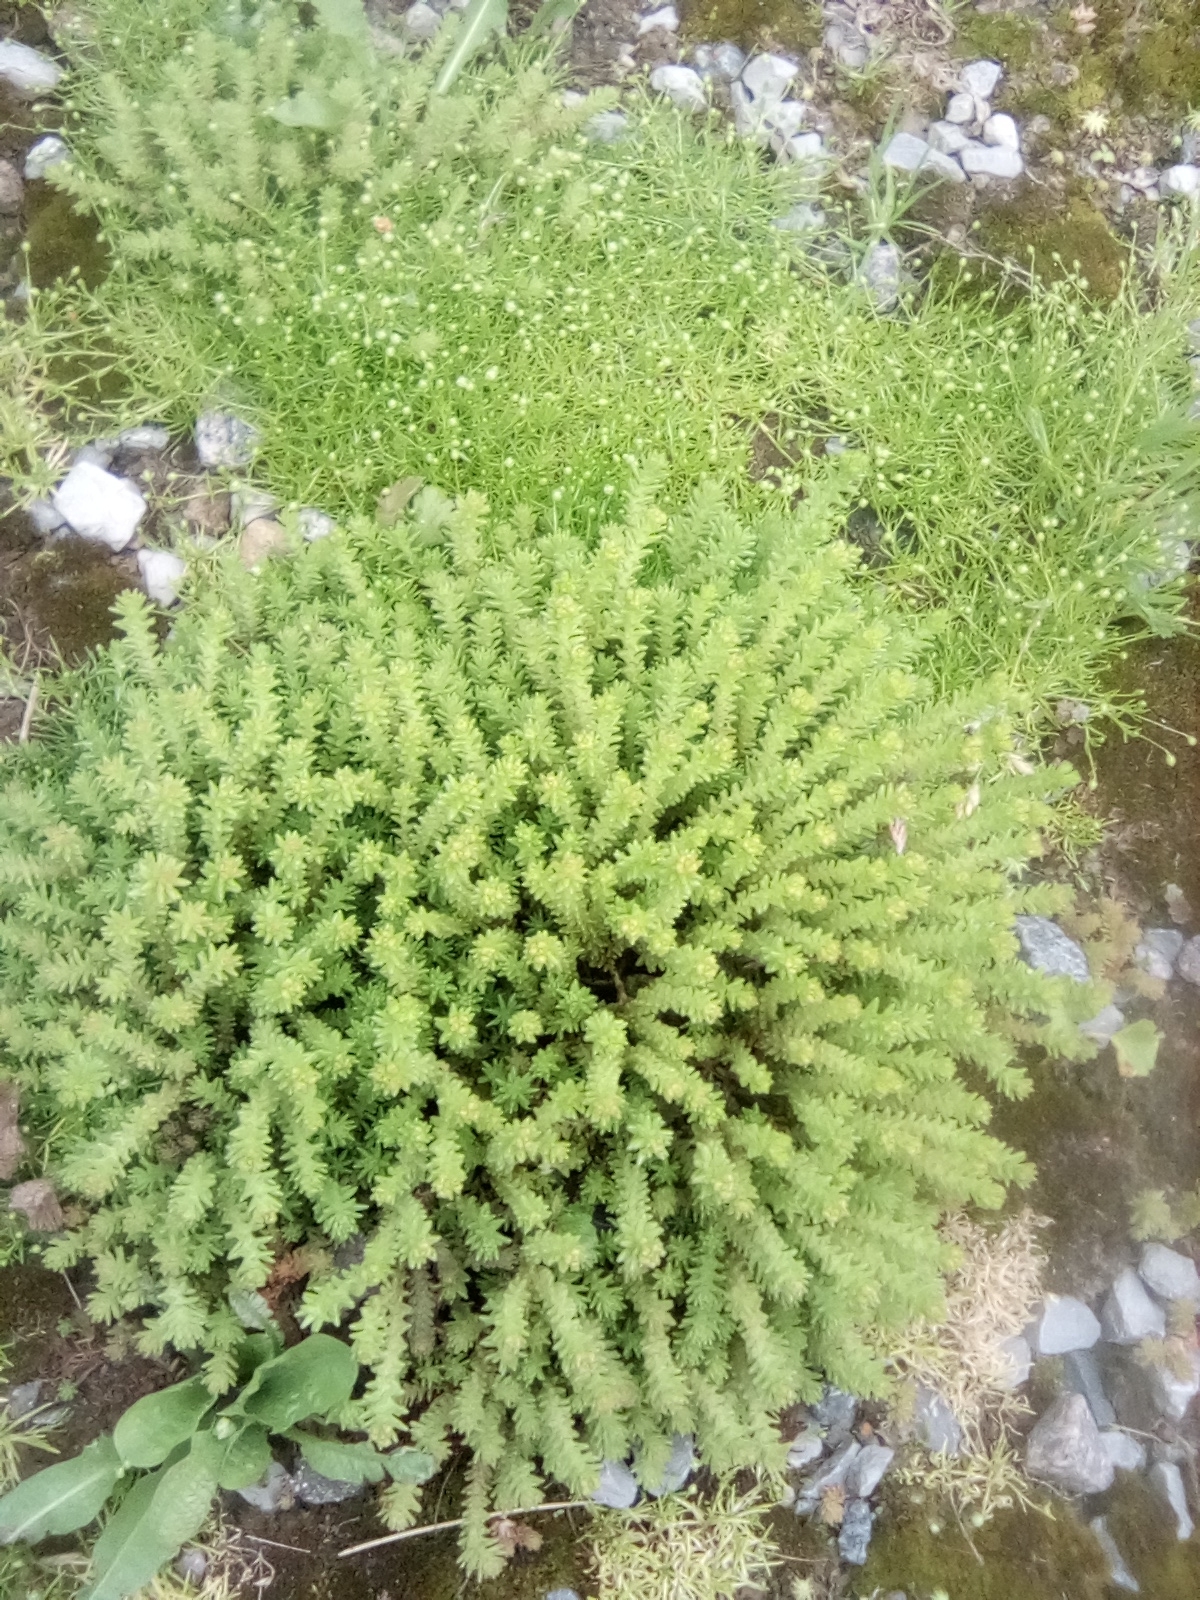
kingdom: Plantae
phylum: Tracheophyta
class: Magnoliopsida
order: Saxifragales
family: Crassulaceae
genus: Sedum
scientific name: Sedum sexangulare
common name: Tasteless stonecrop
